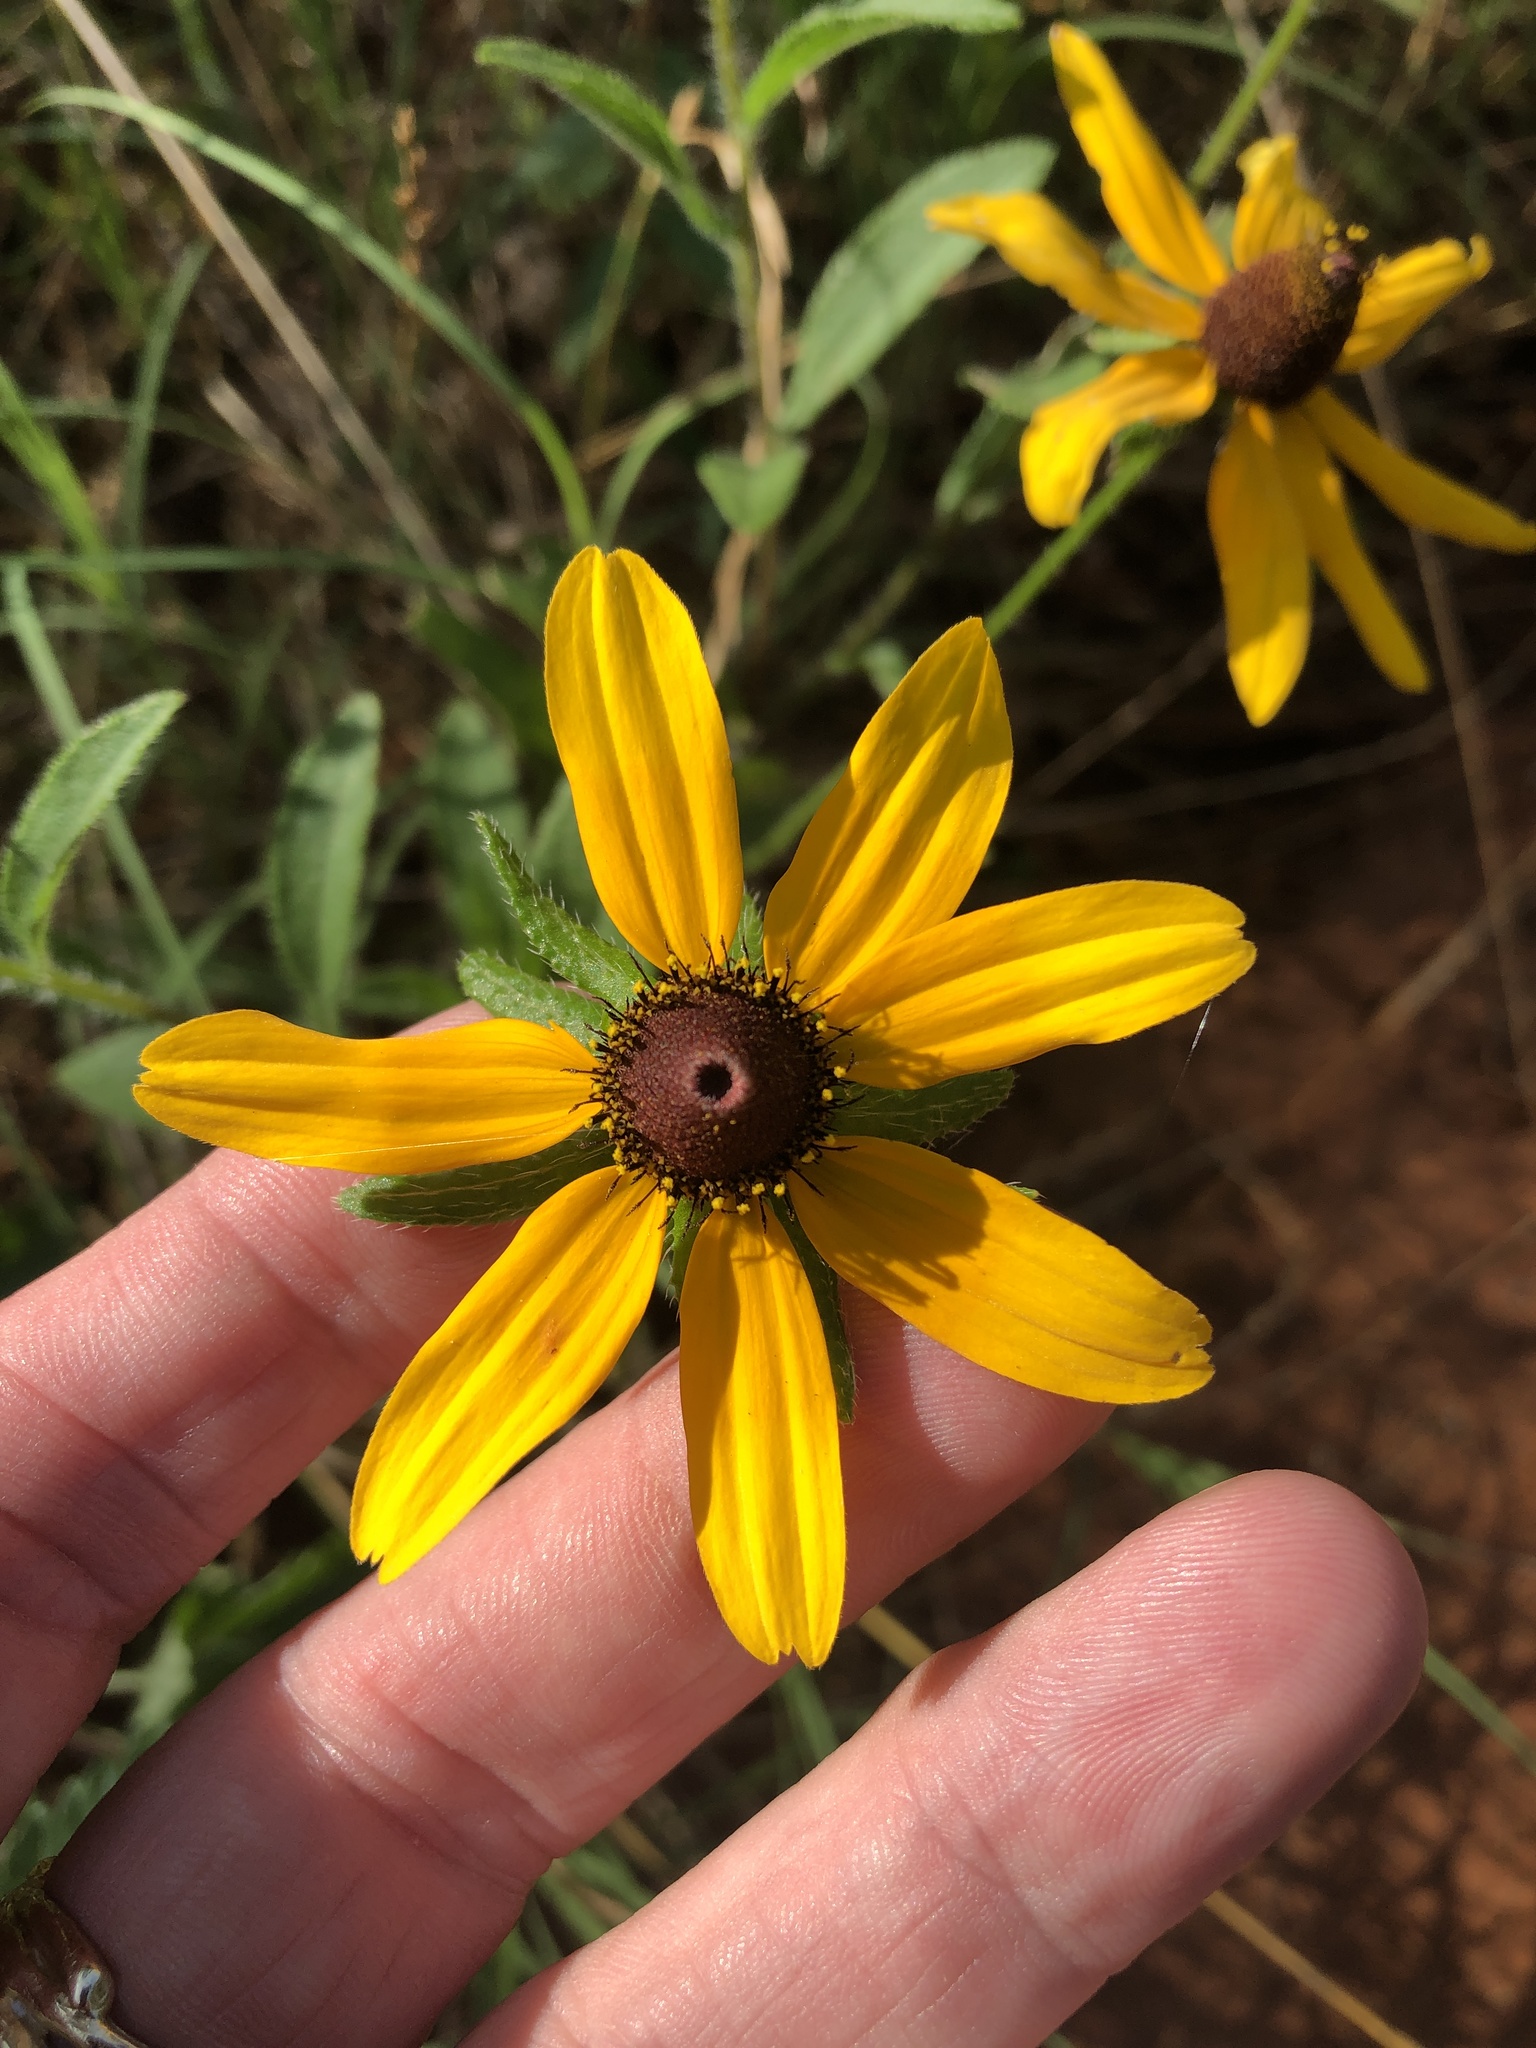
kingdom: Plantae
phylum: Tracheophyta
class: Magnoliopsida
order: Asterales
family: Asteraceae
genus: Rudbeckia
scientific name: Rudbeckia hirta
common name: Black-eyed-susan
